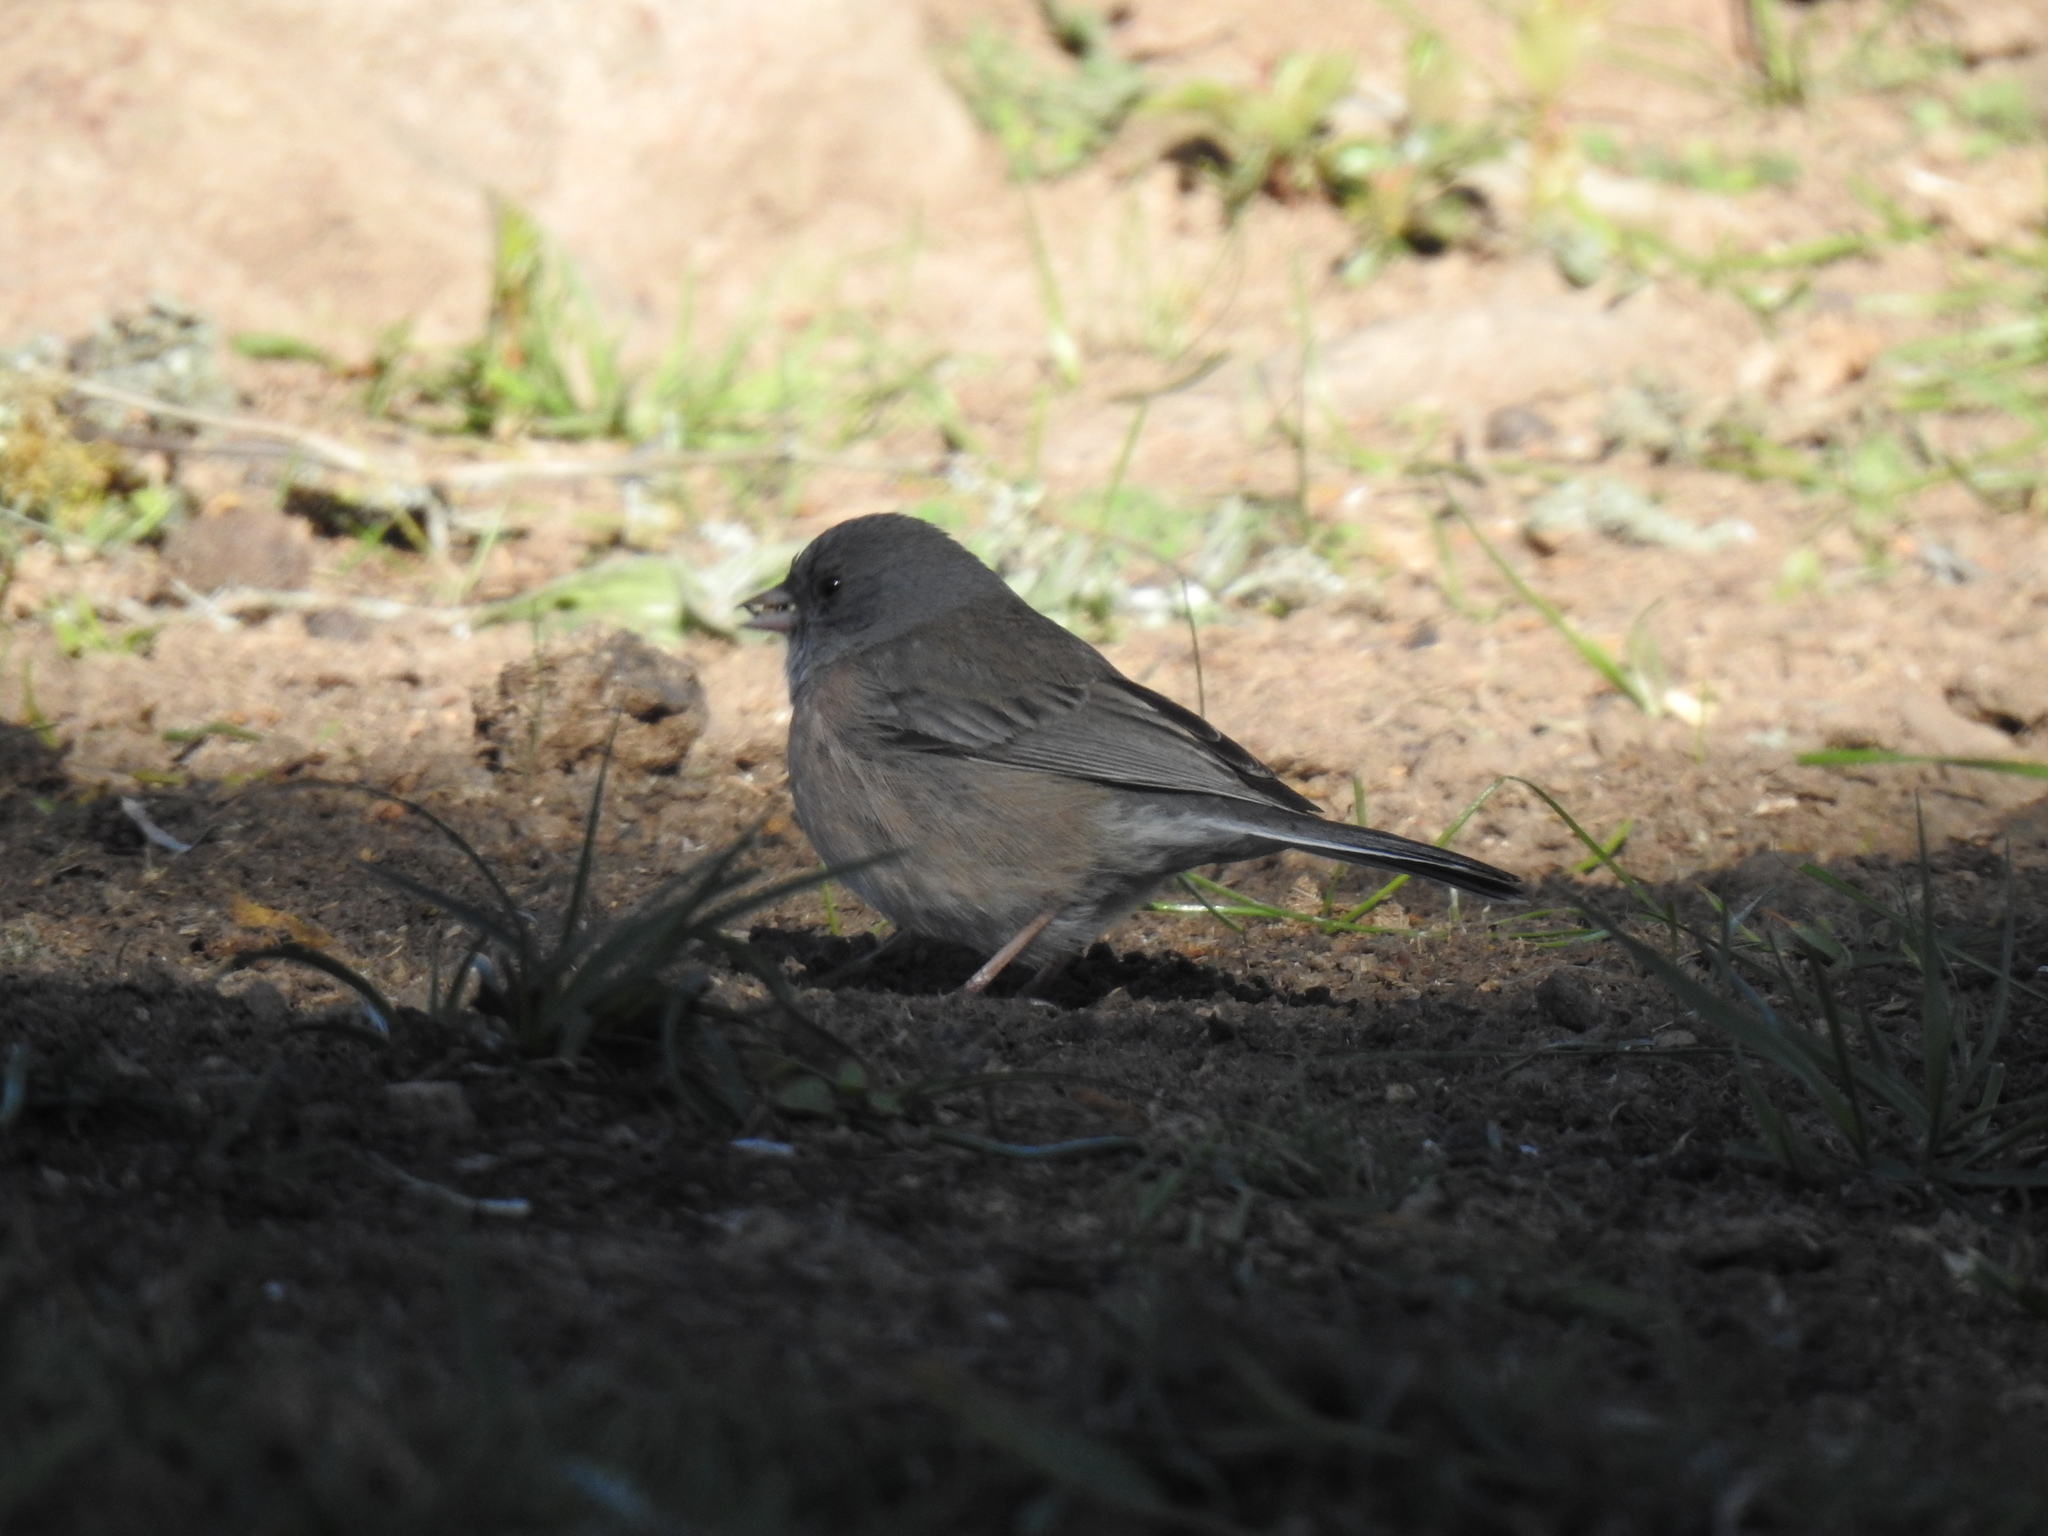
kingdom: Animalia
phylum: Chordata
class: Aves
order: Passeriformes
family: Passerellidae
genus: Junco
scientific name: Junco hyemalis
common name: Dark-eyed junco
